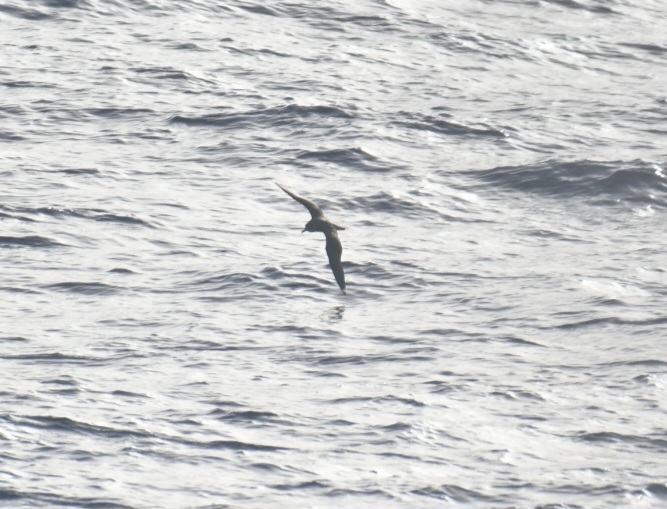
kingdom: Animalia
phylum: Chordata
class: Aves
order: Procellariiformes
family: Procellariidae
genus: Bulweria
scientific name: Bulweria bulwerii
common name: Bulwer's petrel
